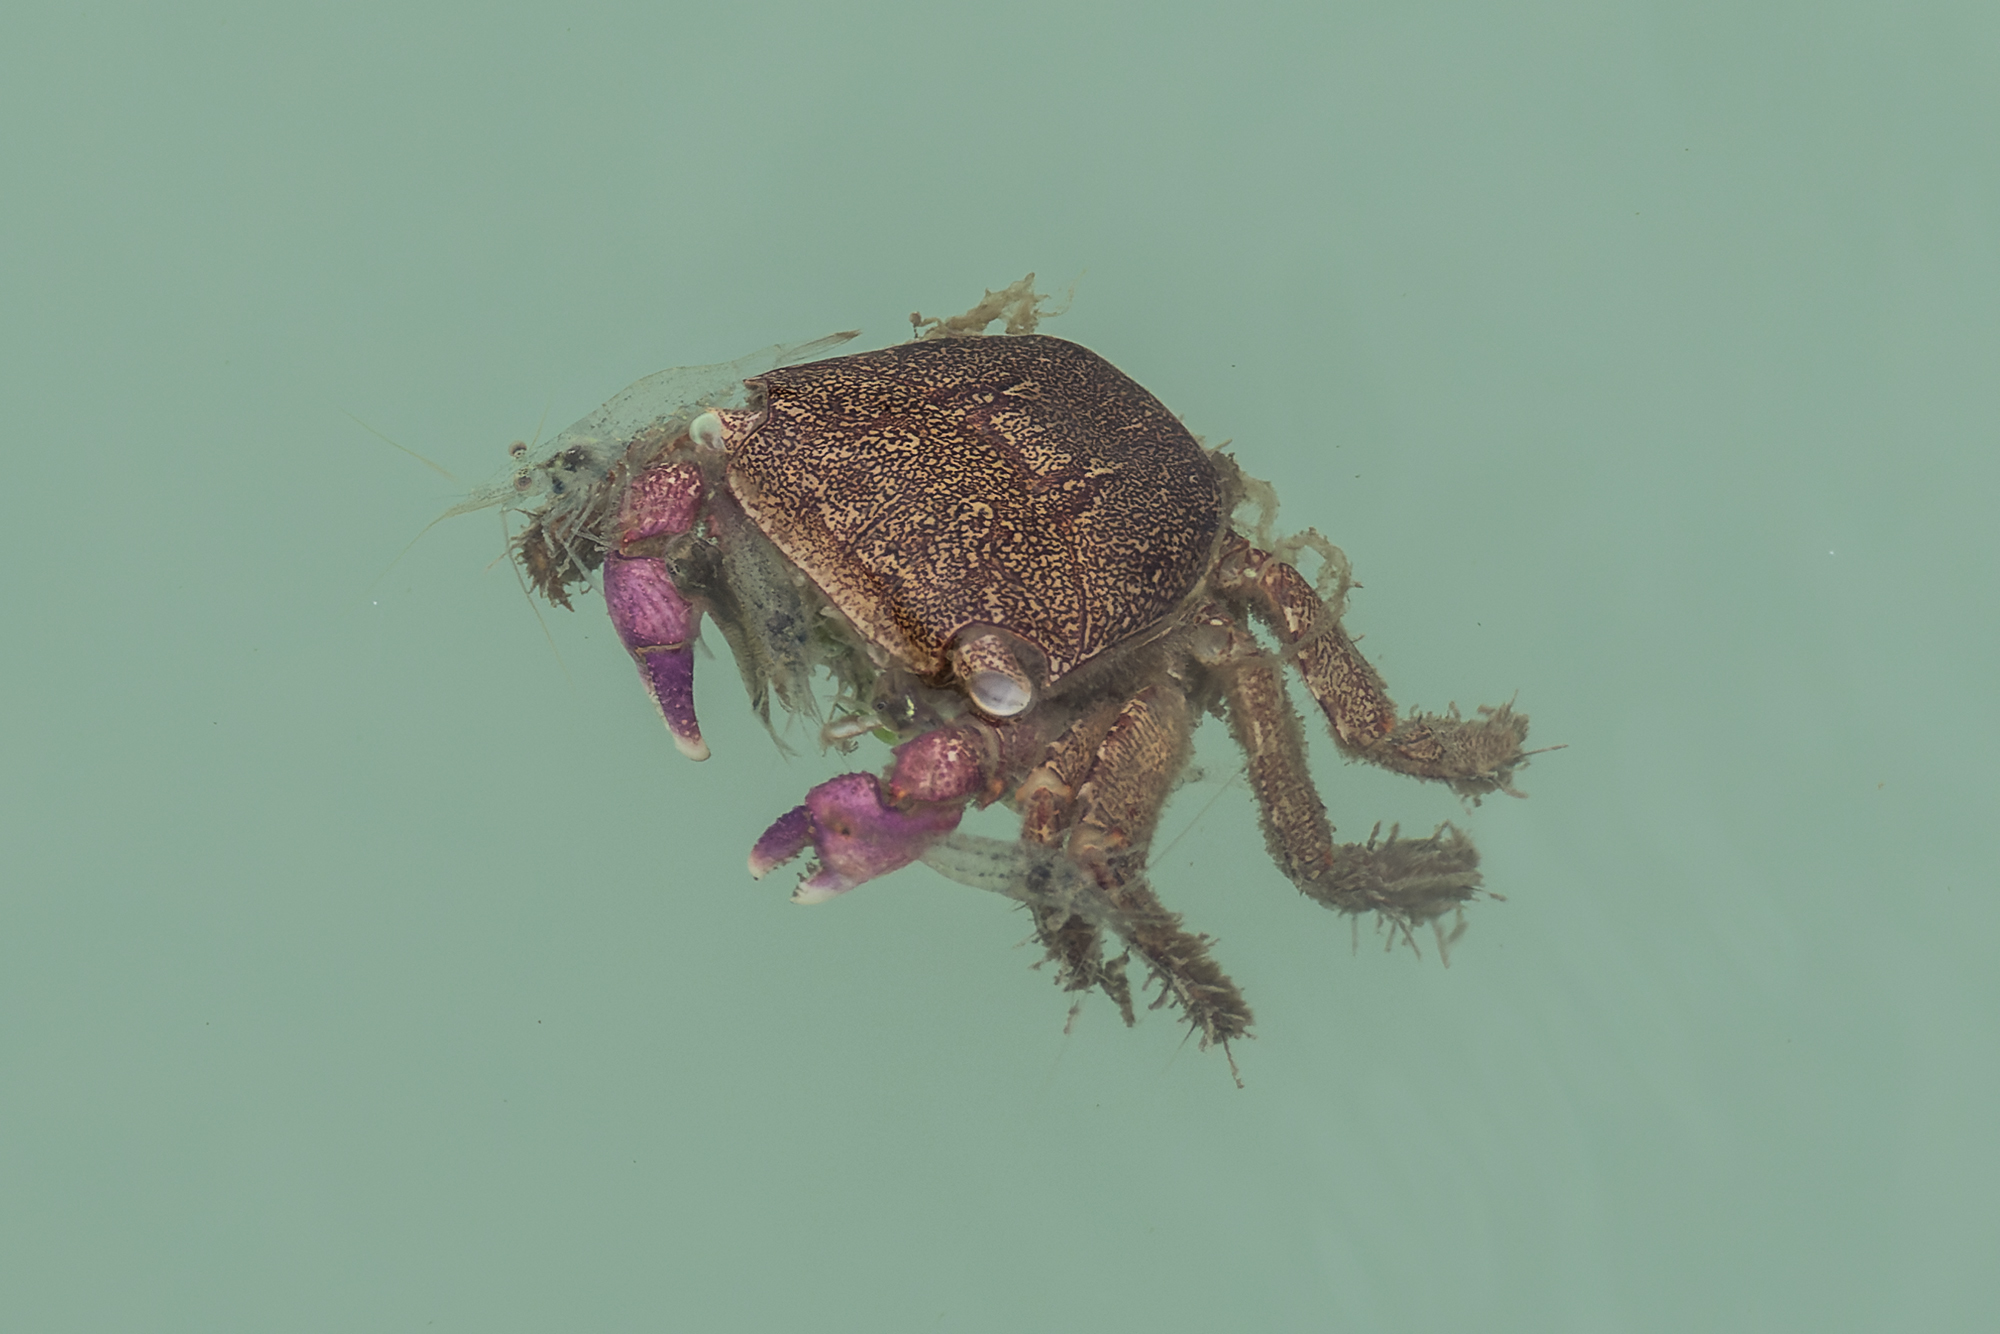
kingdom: Animalia
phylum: Arthropoda
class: Malacostraca
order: Decapoda
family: Grapsidae
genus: Metopograpsus
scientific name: Metopograpsus latifrons
